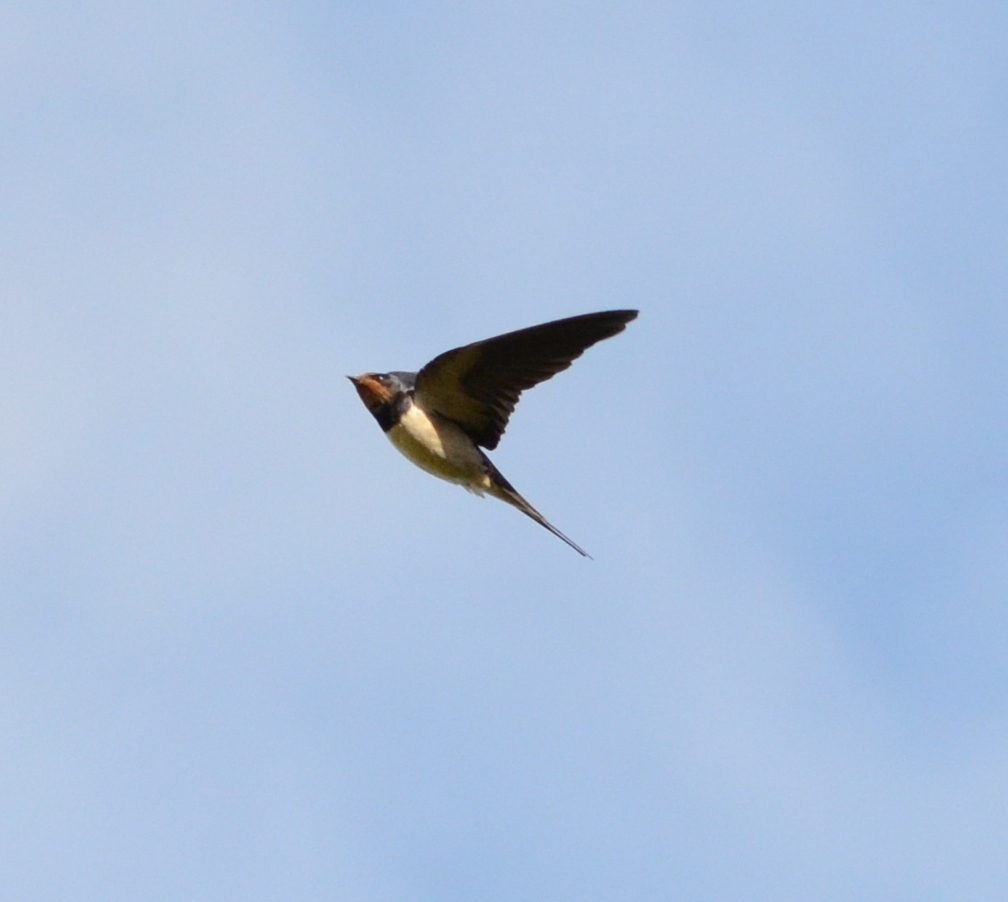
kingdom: Animalia
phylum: Chordata
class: Aves
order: Passeriformes
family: Hirundinidae
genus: Hirundo
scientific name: Hirundo rustica
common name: Barn swallow
